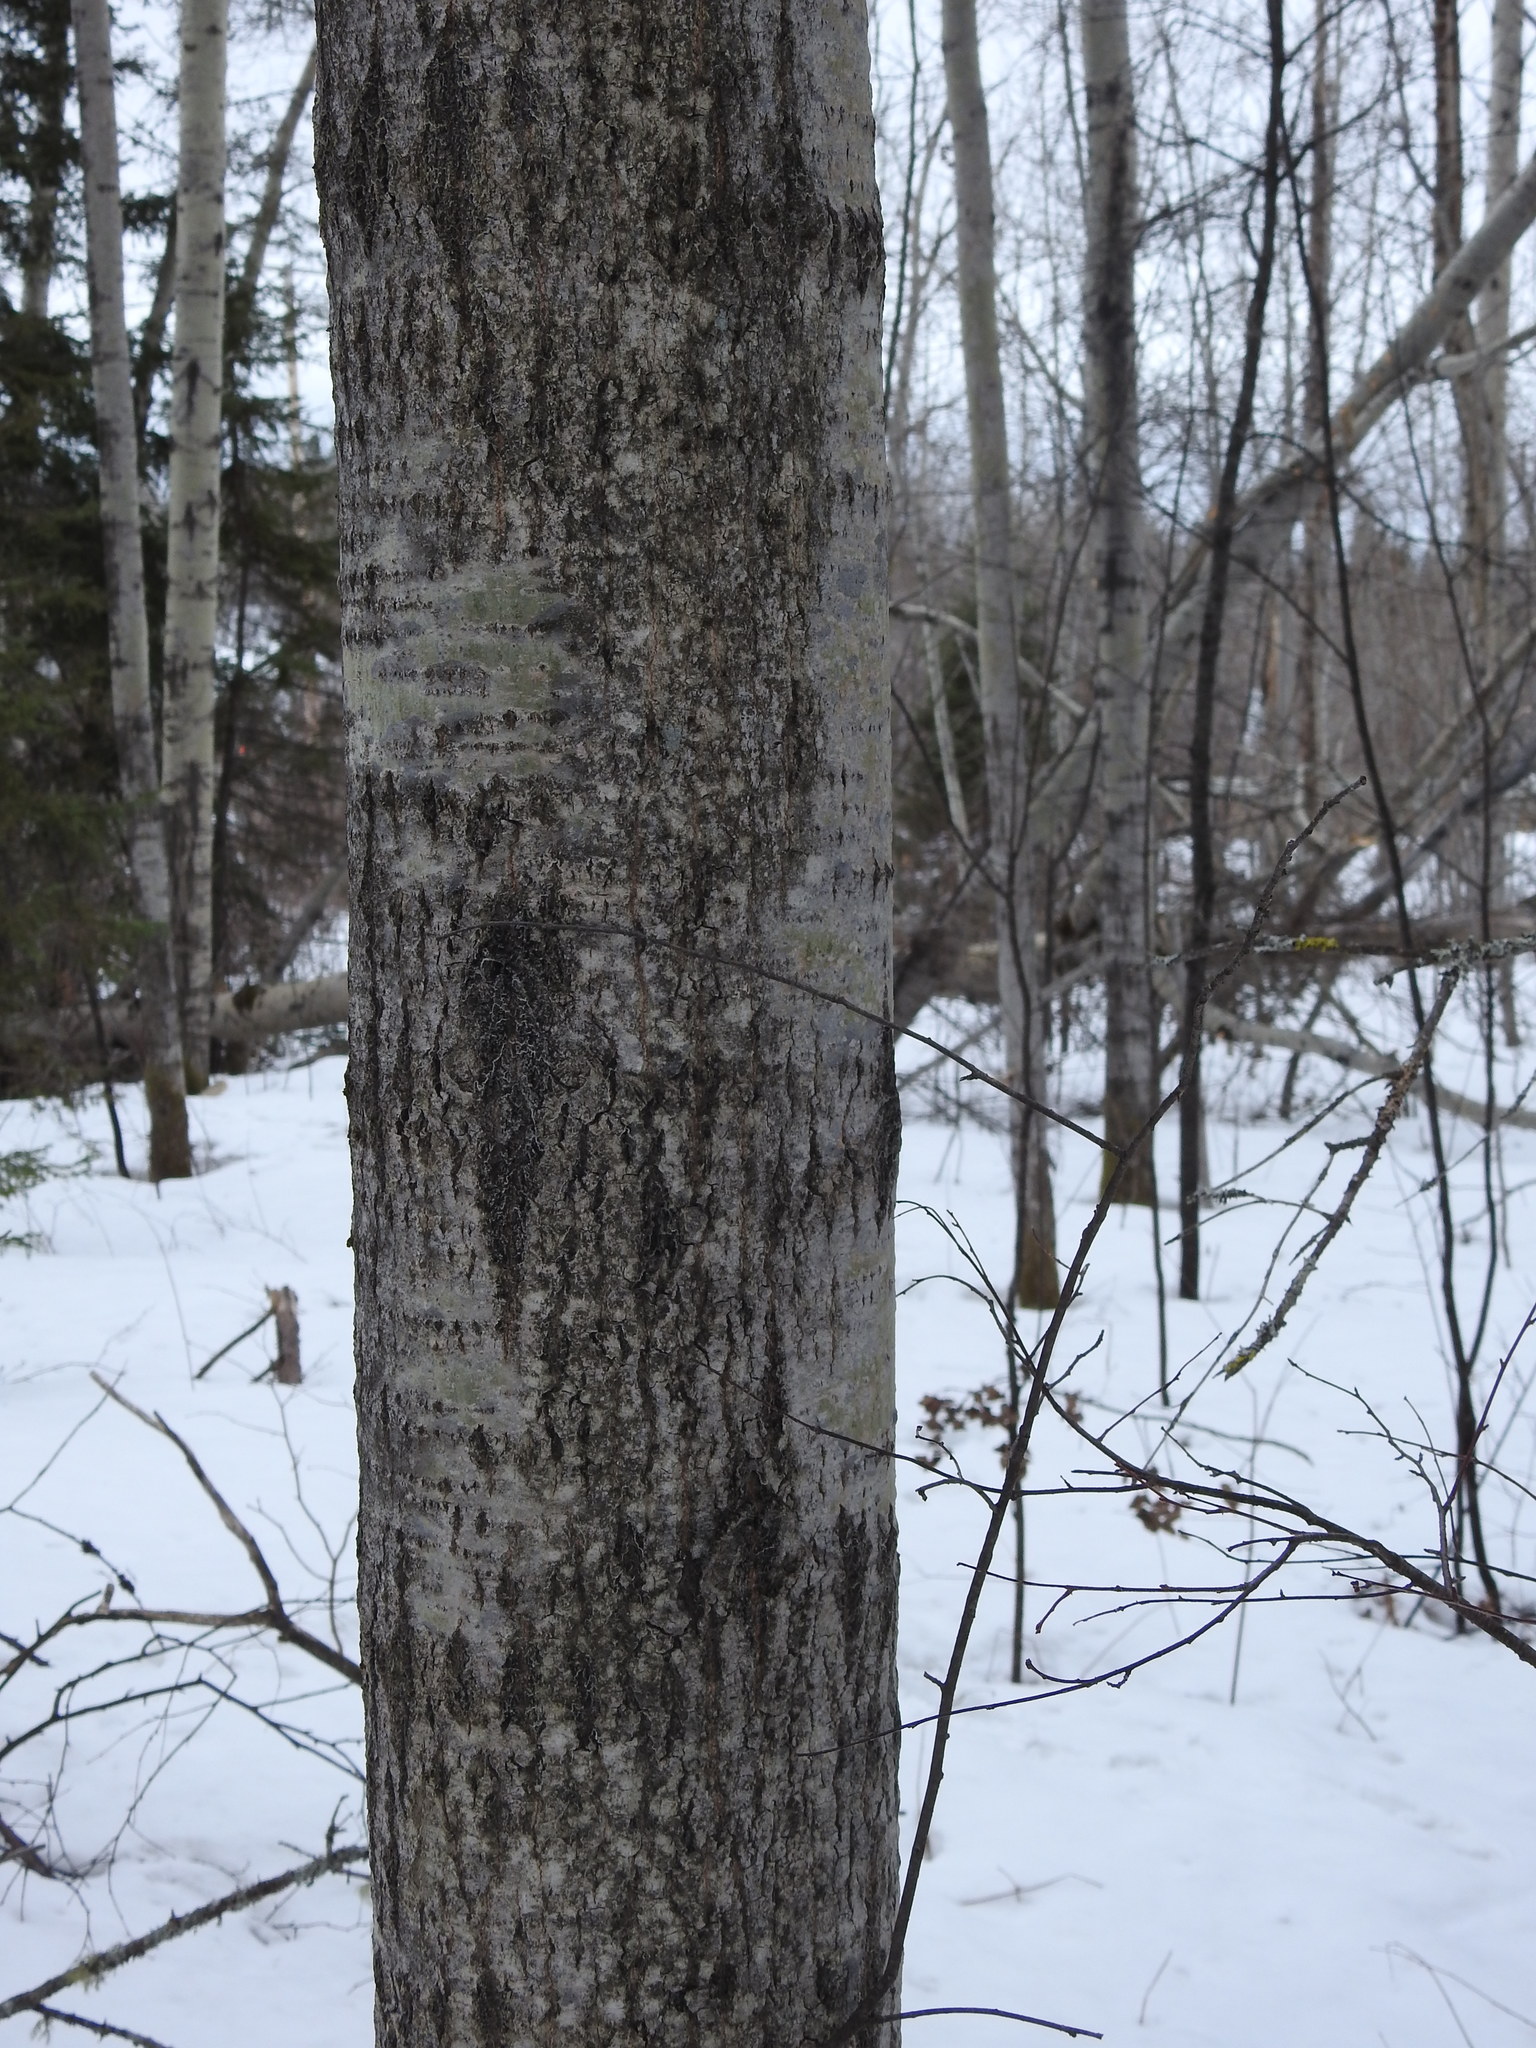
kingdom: Plantae
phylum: Tracheophyta
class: Magnoliopsida
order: Malpighiales
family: Salicaceae
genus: Populus
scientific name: Populus tremuloides
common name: Quaking aspen
